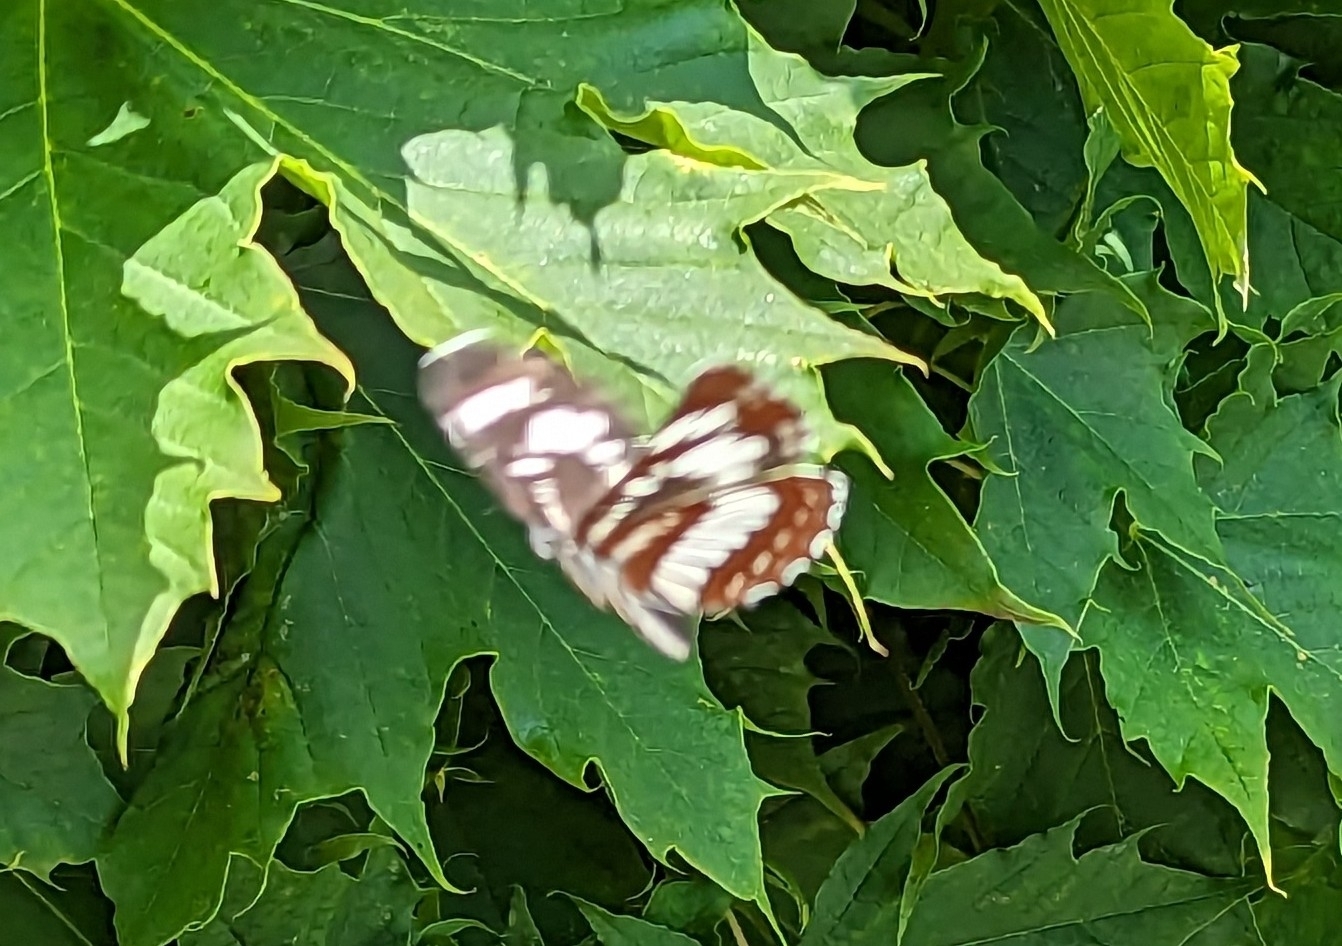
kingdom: Animalia
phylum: Arthropoda
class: Insecta
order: Lepidoptera
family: Nymphalidae
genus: Neptis
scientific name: Neptis rivularis
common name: Hungarian glider
